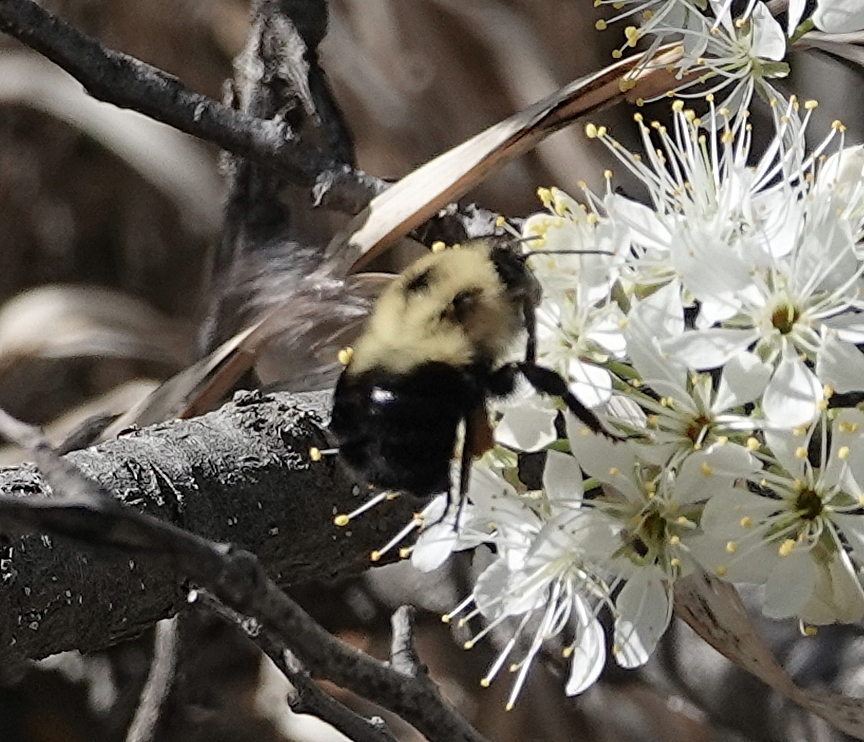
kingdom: Animalia
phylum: Arthropoda
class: Insecta
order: Hymenoptera
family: Apidae
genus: Bombus
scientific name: Bombus bimaculatus
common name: Two-spotted bumble bee
